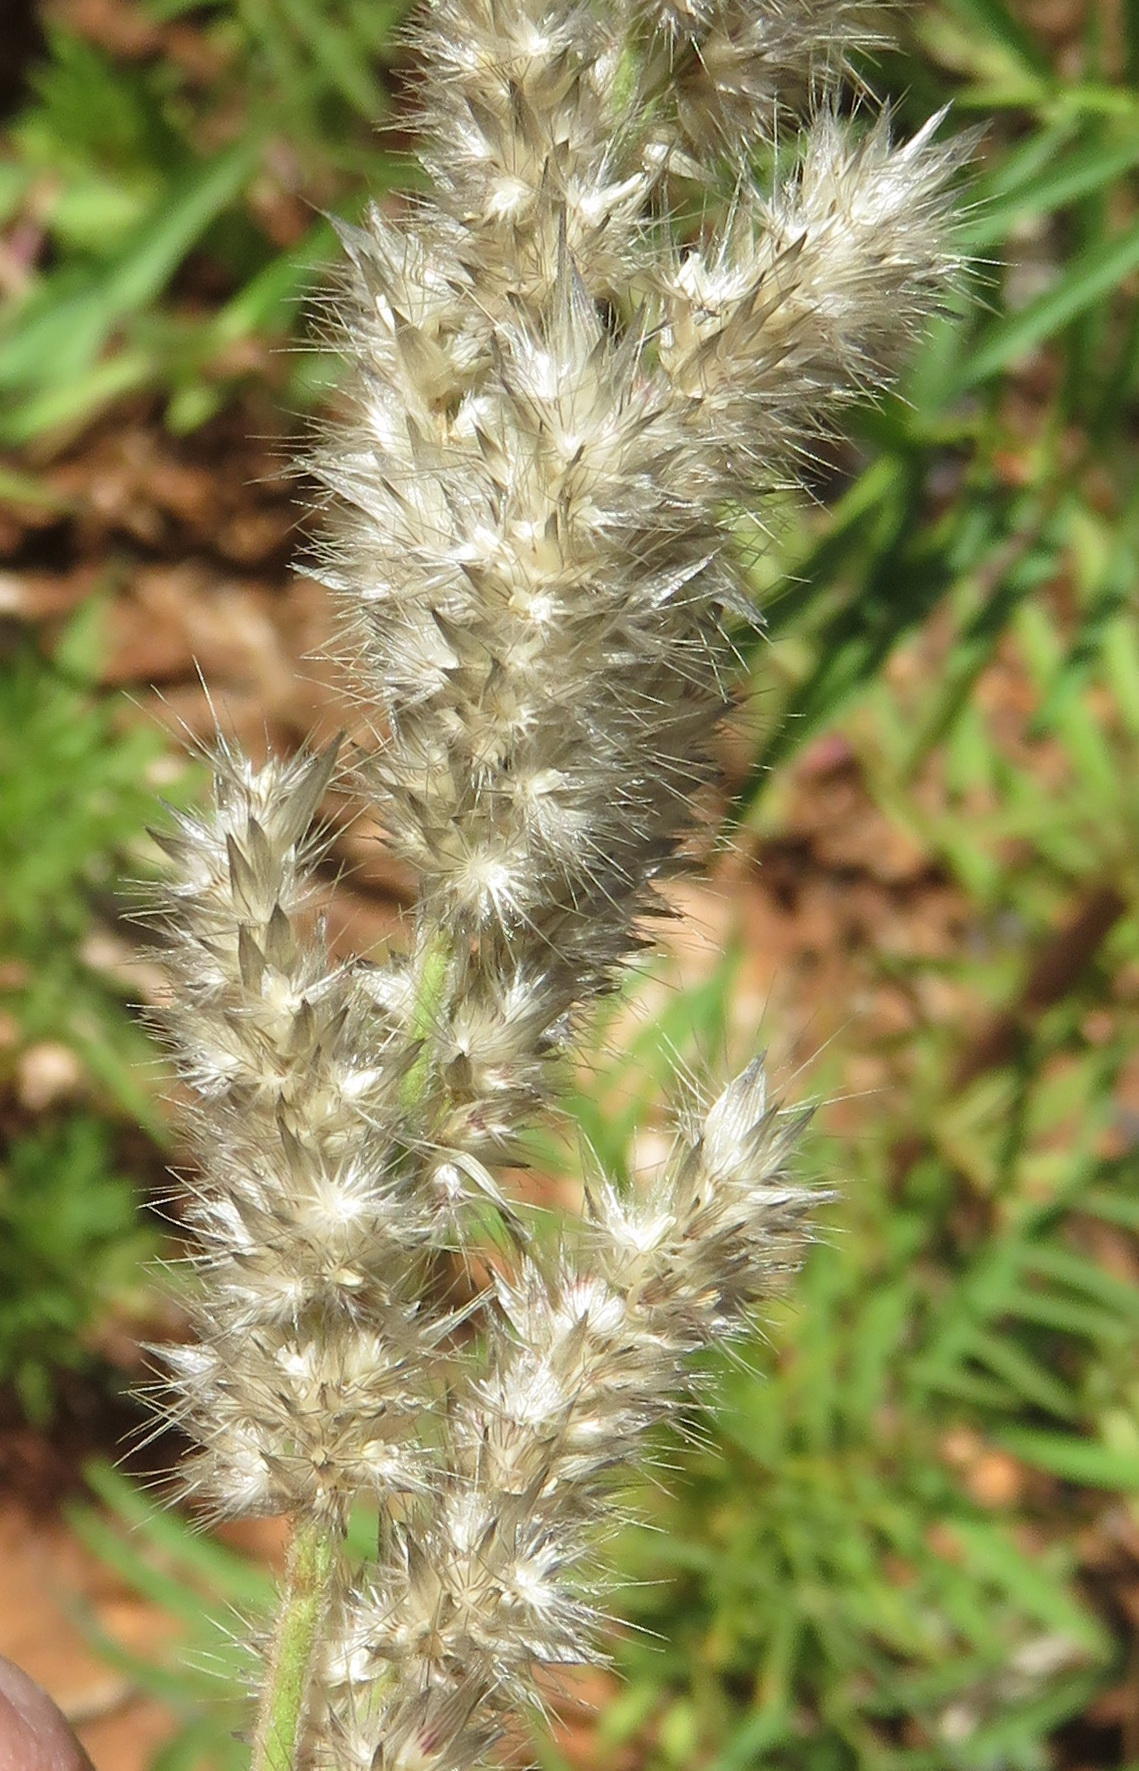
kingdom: Plantae
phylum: Tracheophyta
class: Liliopsida
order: Poales
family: Poaceae
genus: Enneapogon
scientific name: Enneapogon cenchroides
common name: Soft feather pappusgrass
